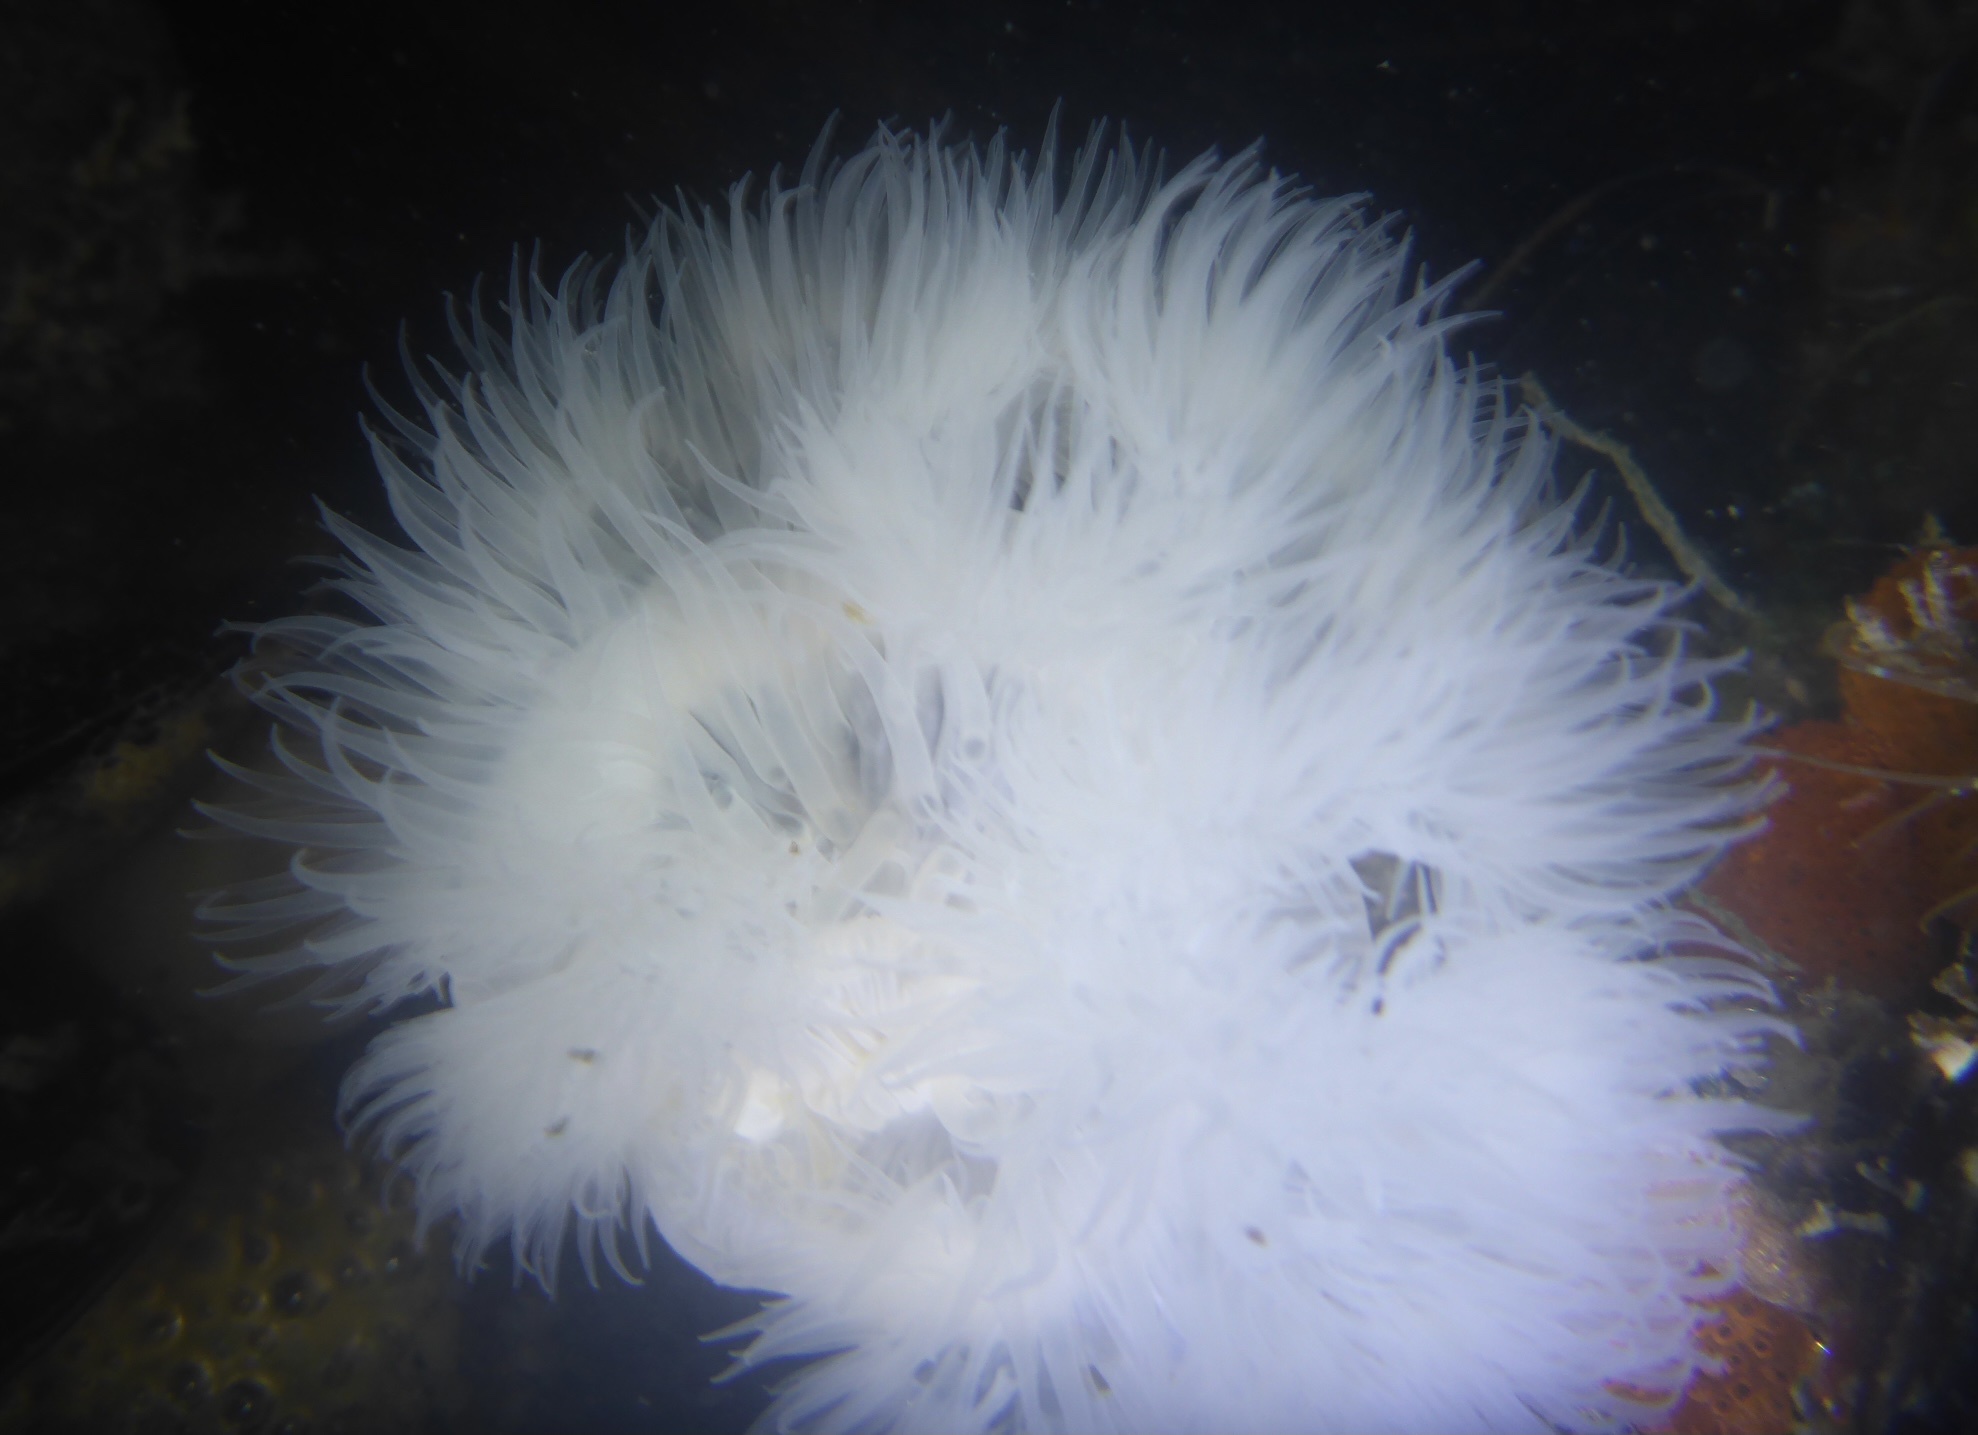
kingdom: Animalia
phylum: Cnidaria
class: Anthozoa
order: Actiniaria
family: Metridiidae
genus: Metridium
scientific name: Metridium farcimen
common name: Gigantic anemone
